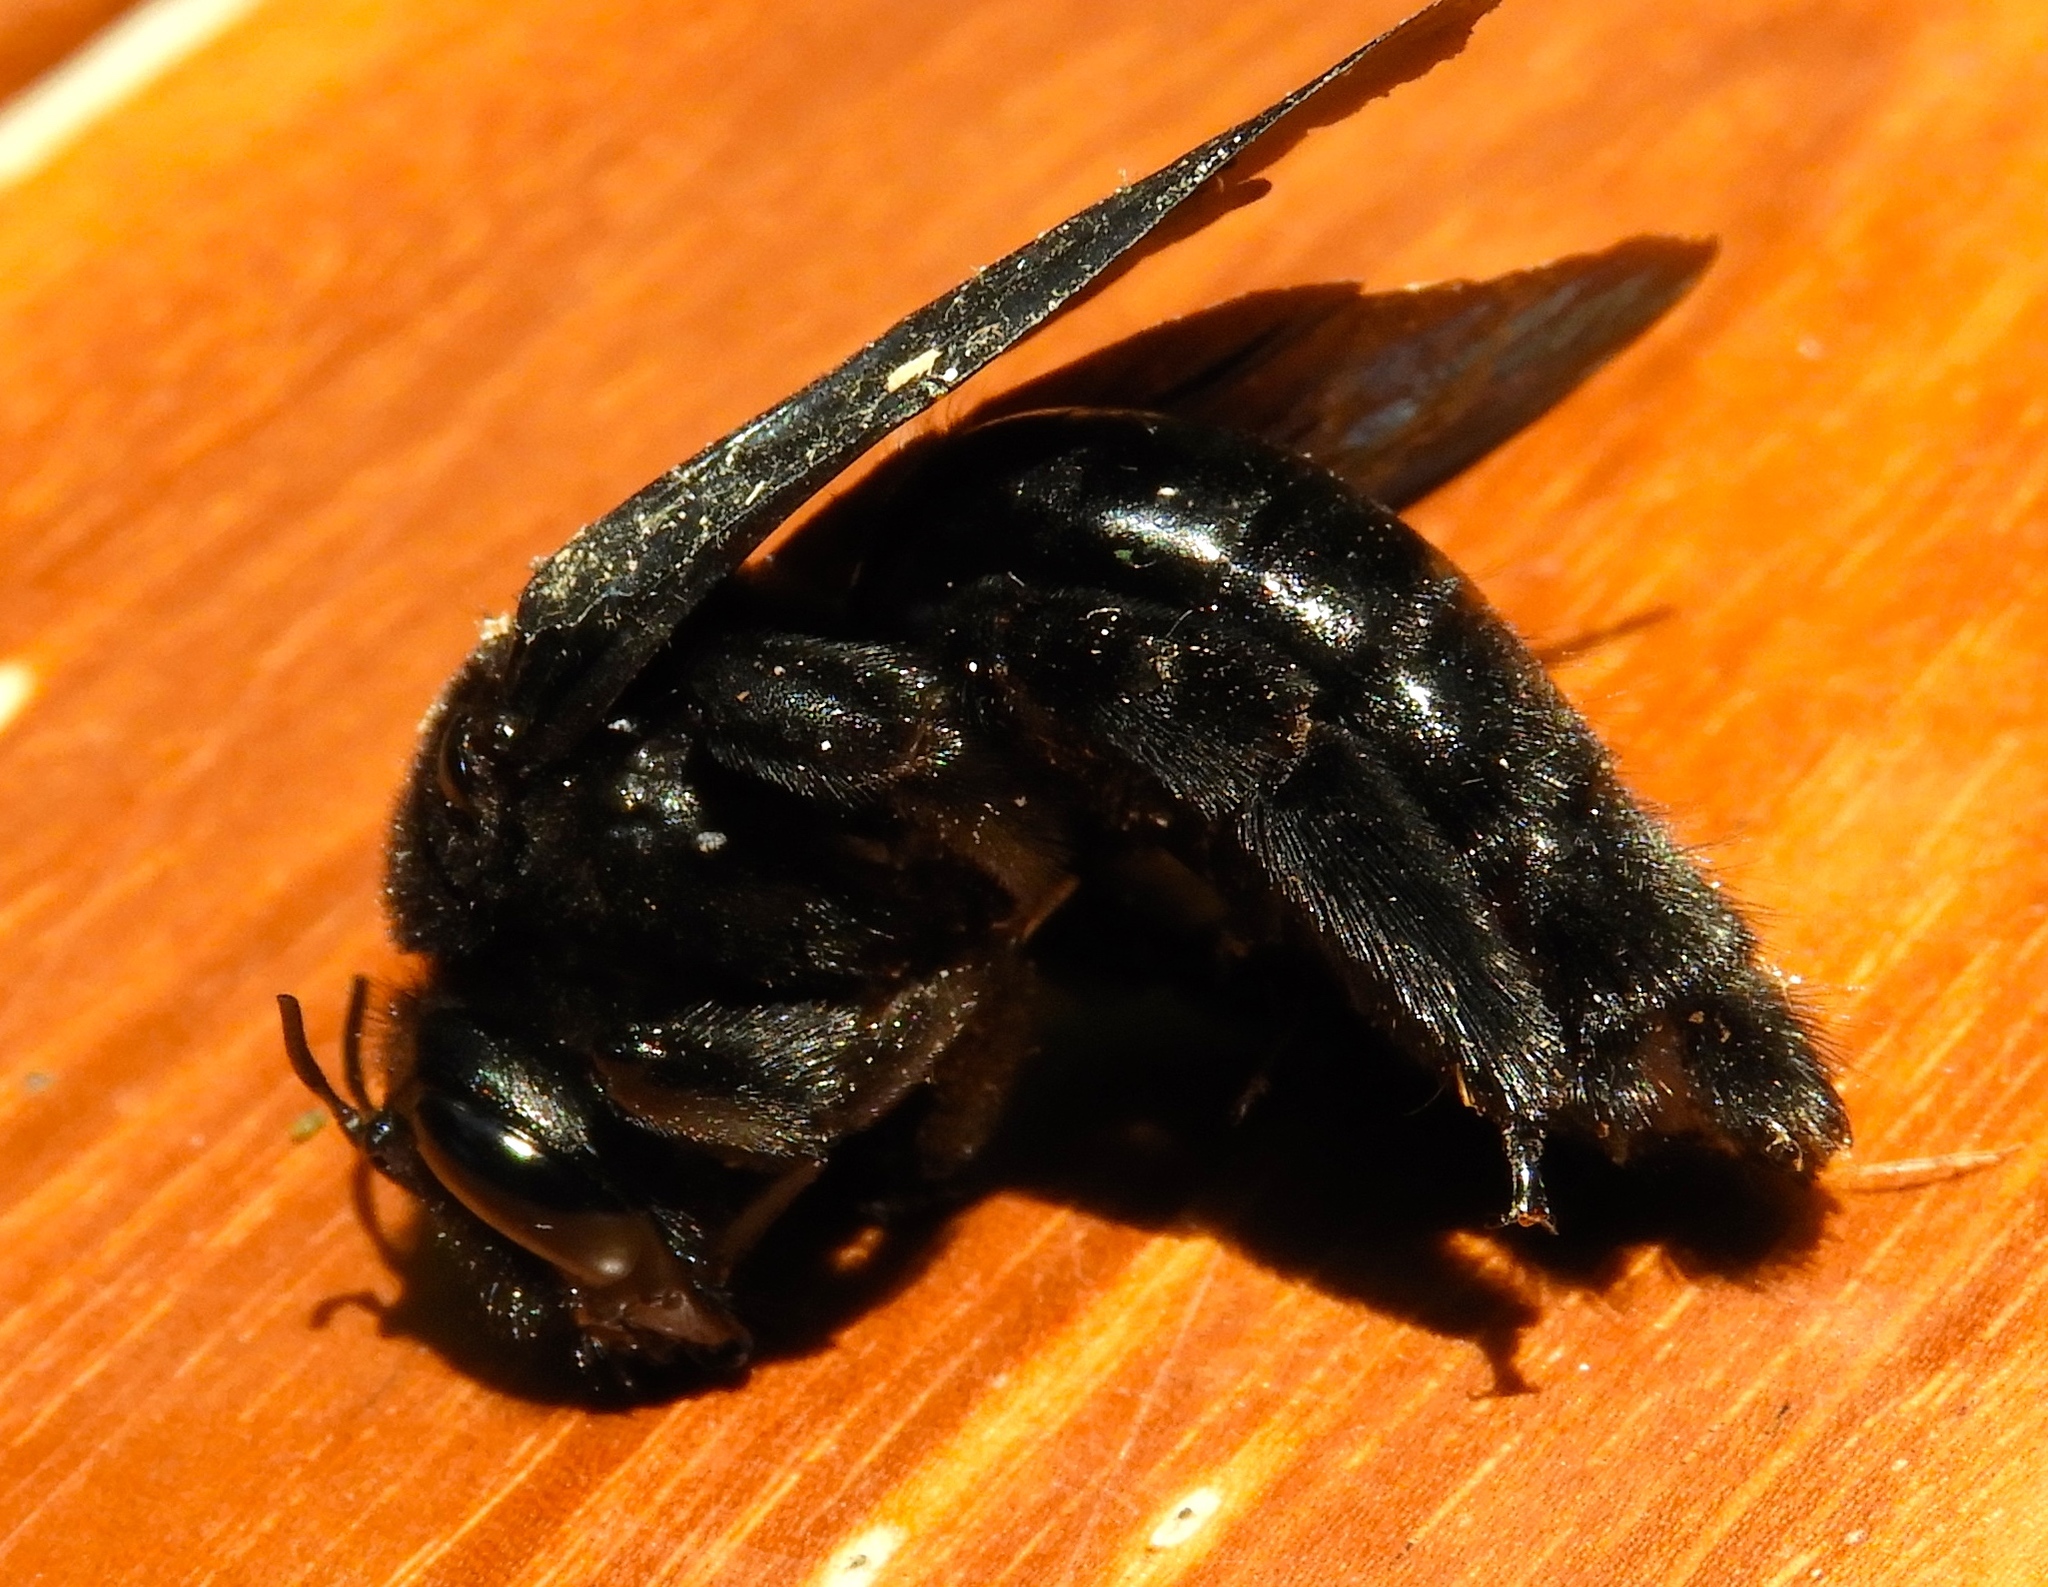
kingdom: Animalia
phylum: Arthropoda
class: Insecta
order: Hymenoptera
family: Apidae
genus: Xylocopa
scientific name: Xylocopa fimbriata
